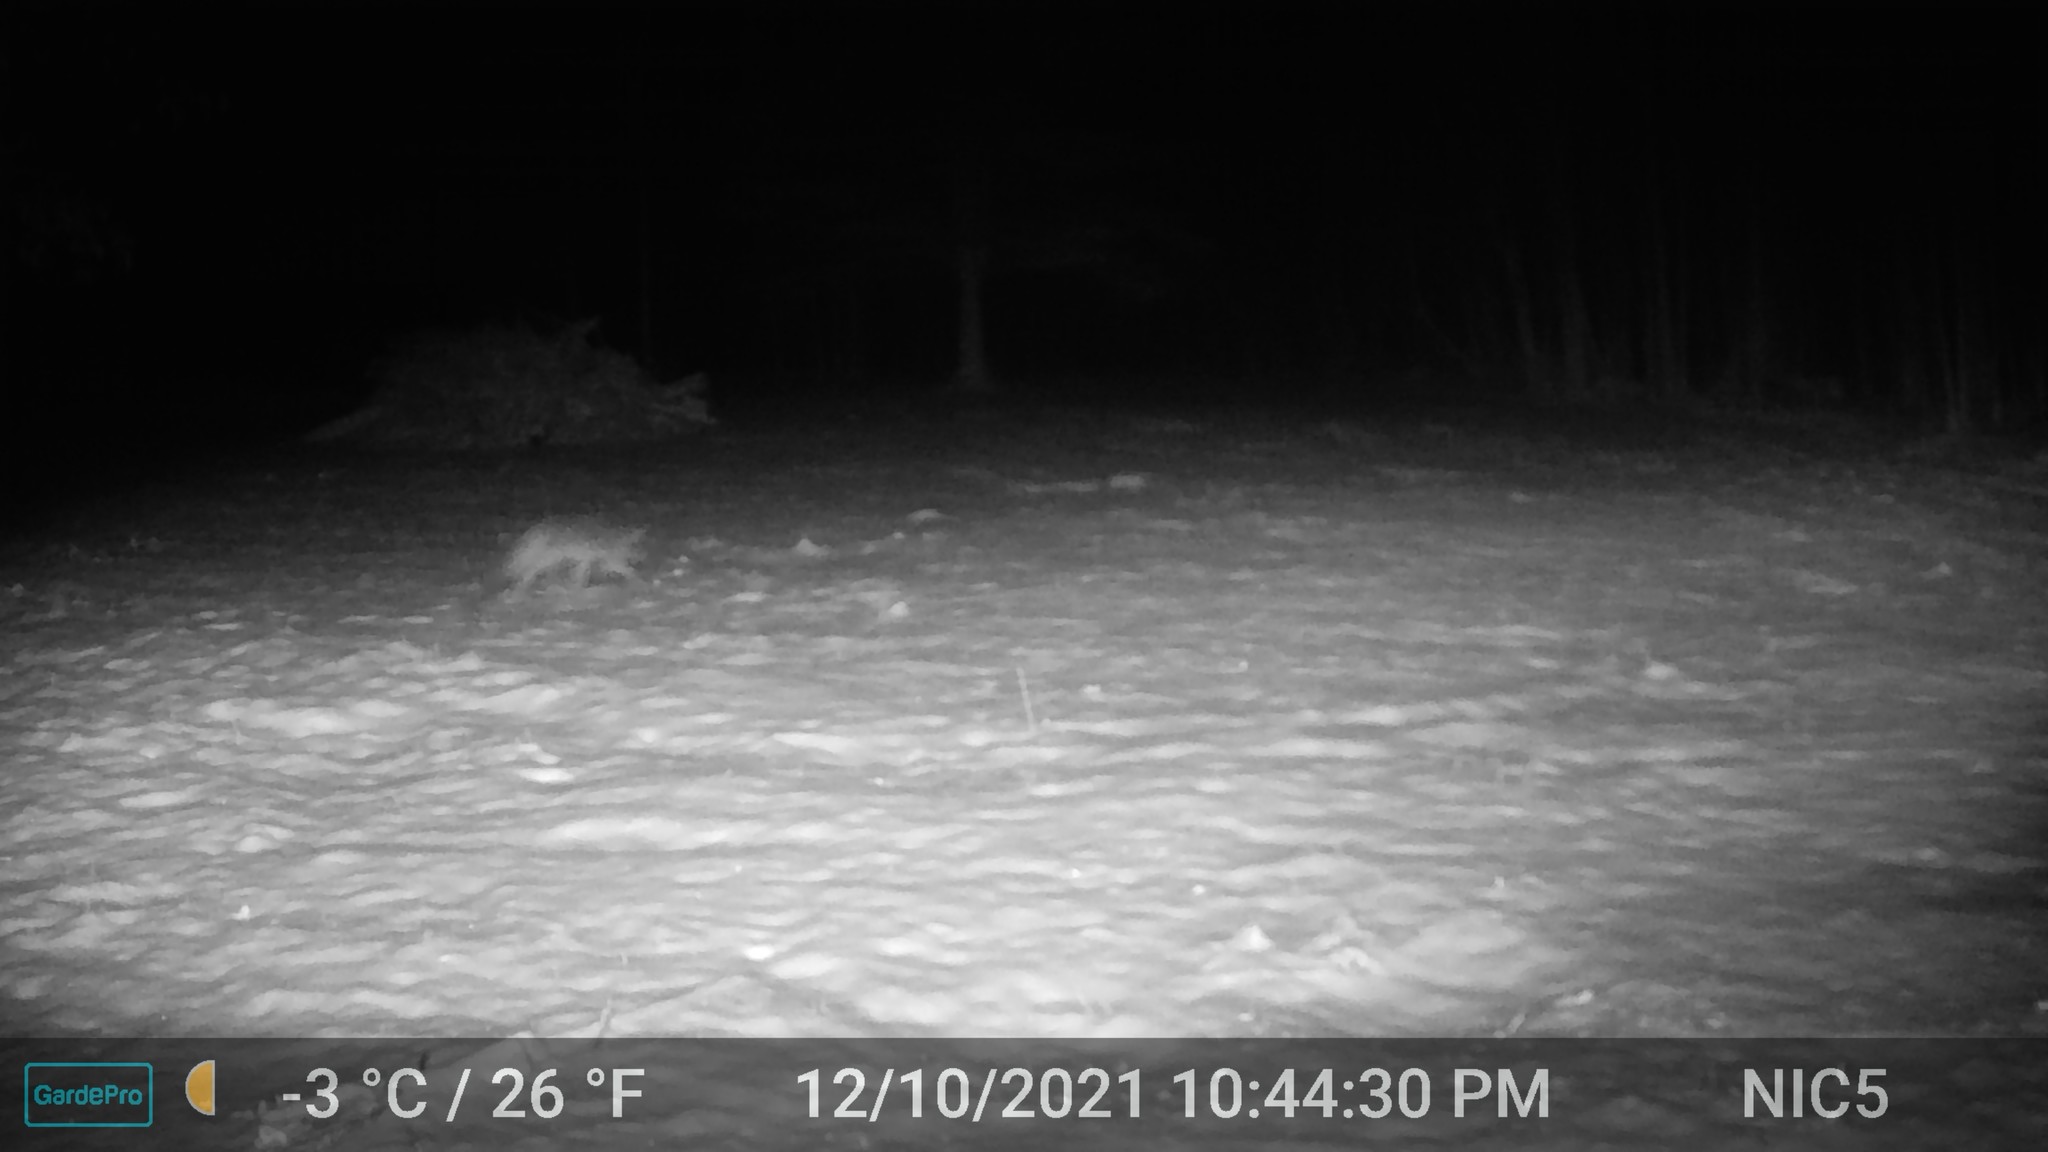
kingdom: Animalia
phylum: Chordata
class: Mammalia
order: Carnivora
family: Canidae
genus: Canis
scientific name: Canis latrans
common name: Coyote
